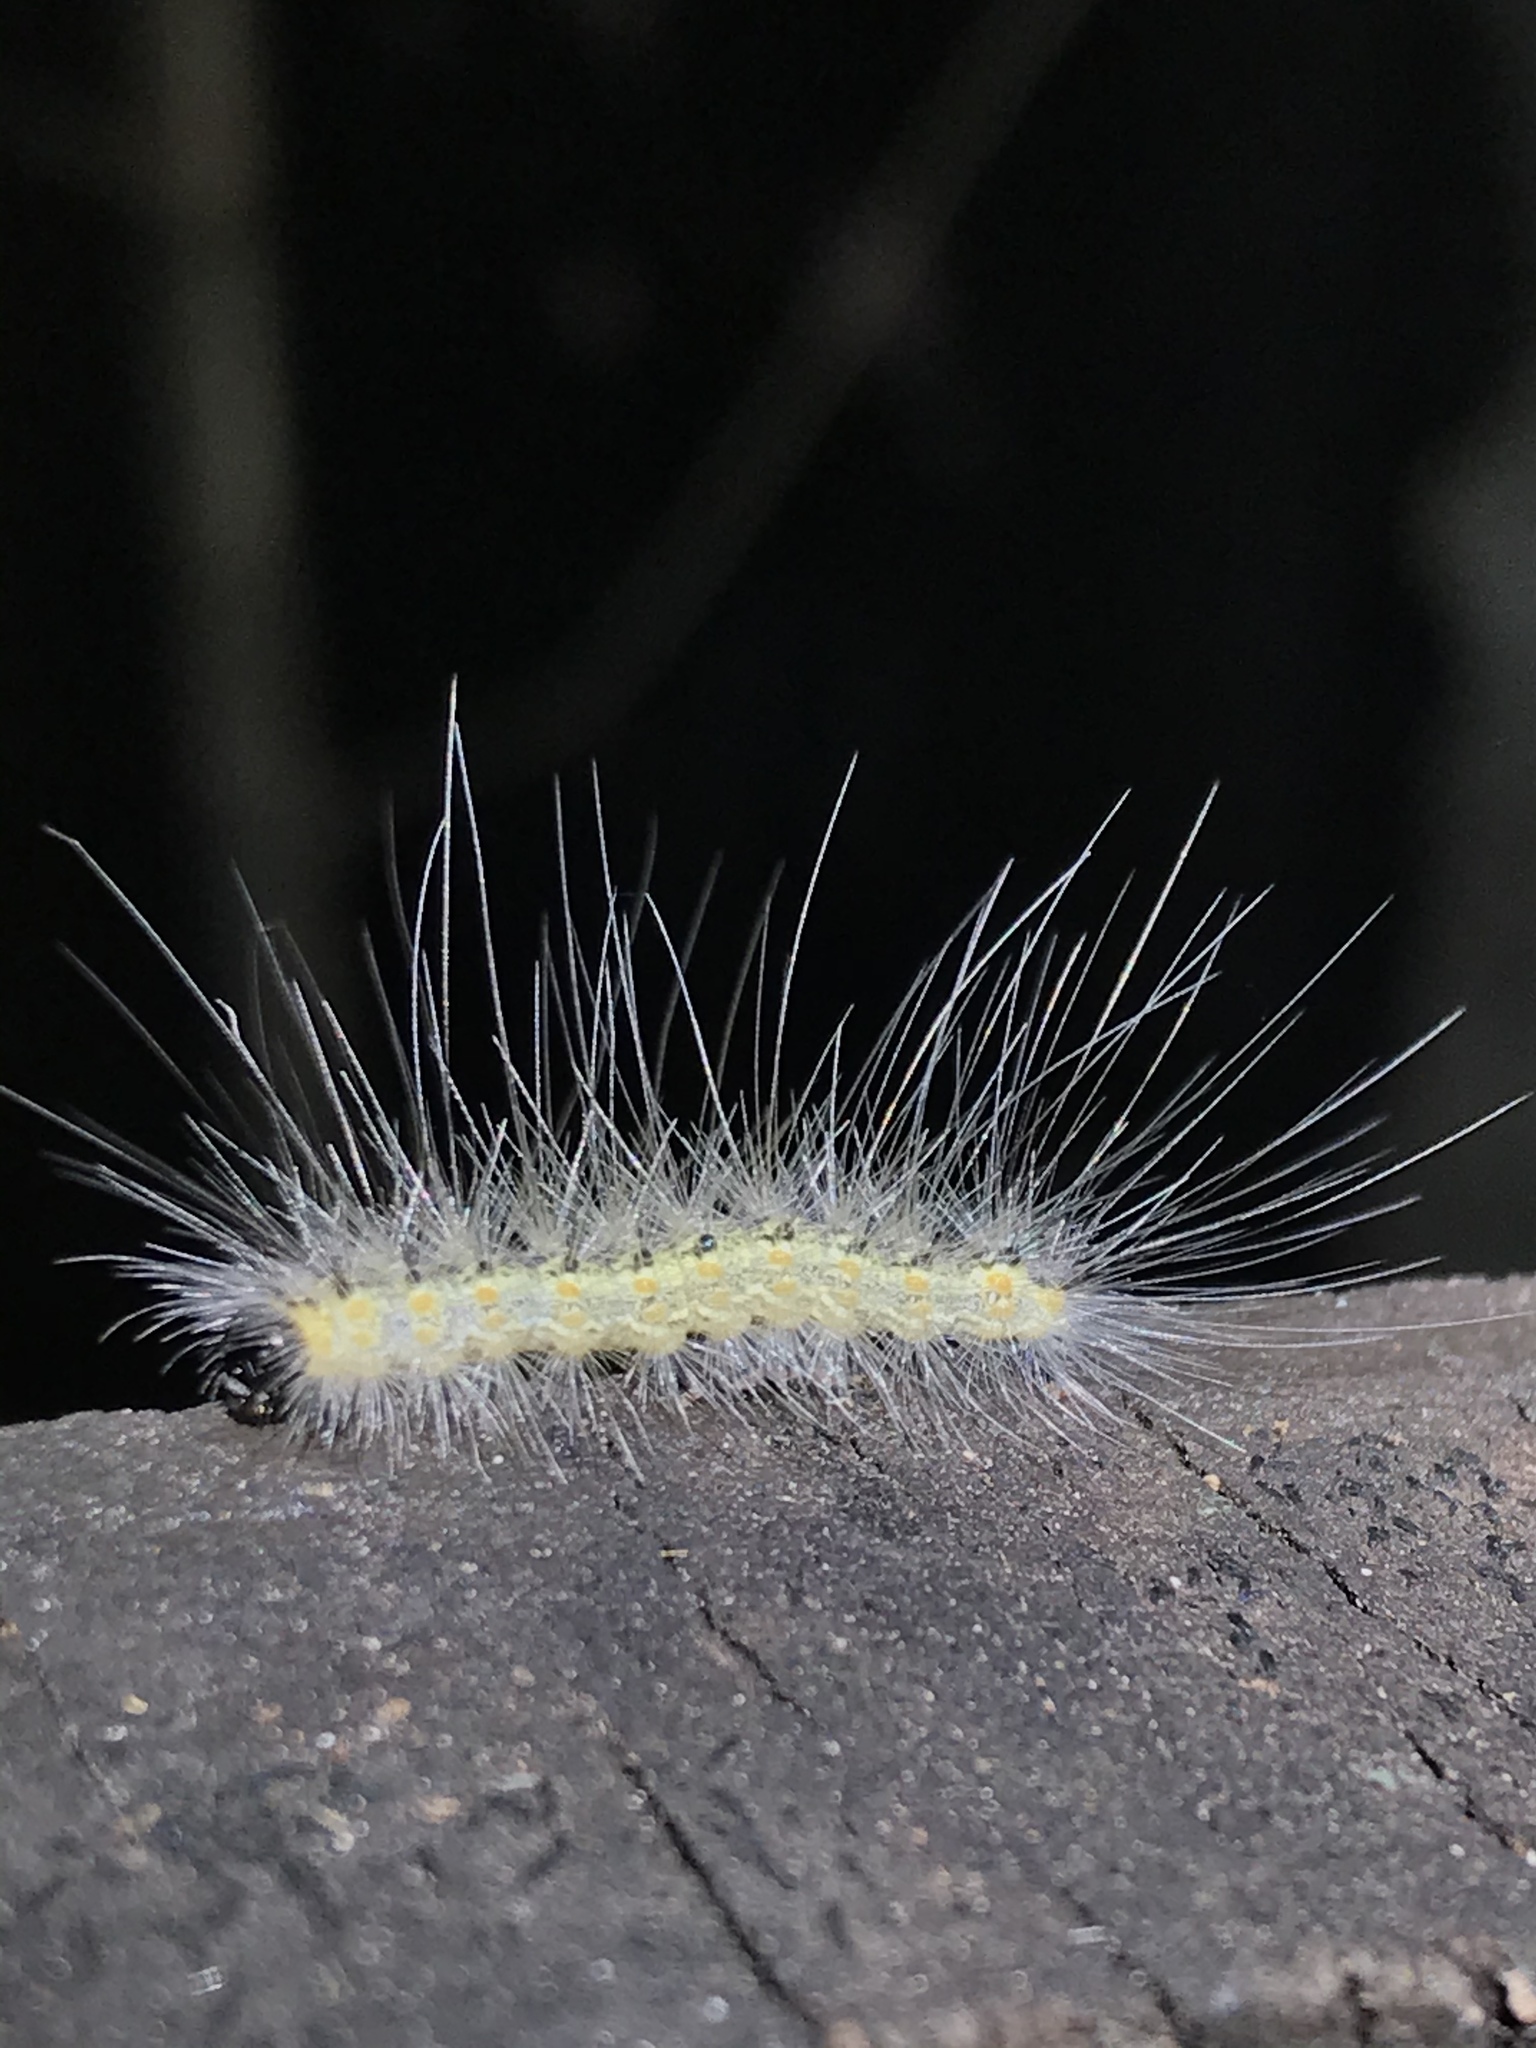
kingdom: Animalia
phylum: Arthropoda
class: Insecta
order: Lepidoptera
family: Erebidae
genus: Hyphantria
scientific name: Hyphantria cunea
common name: American white moth
